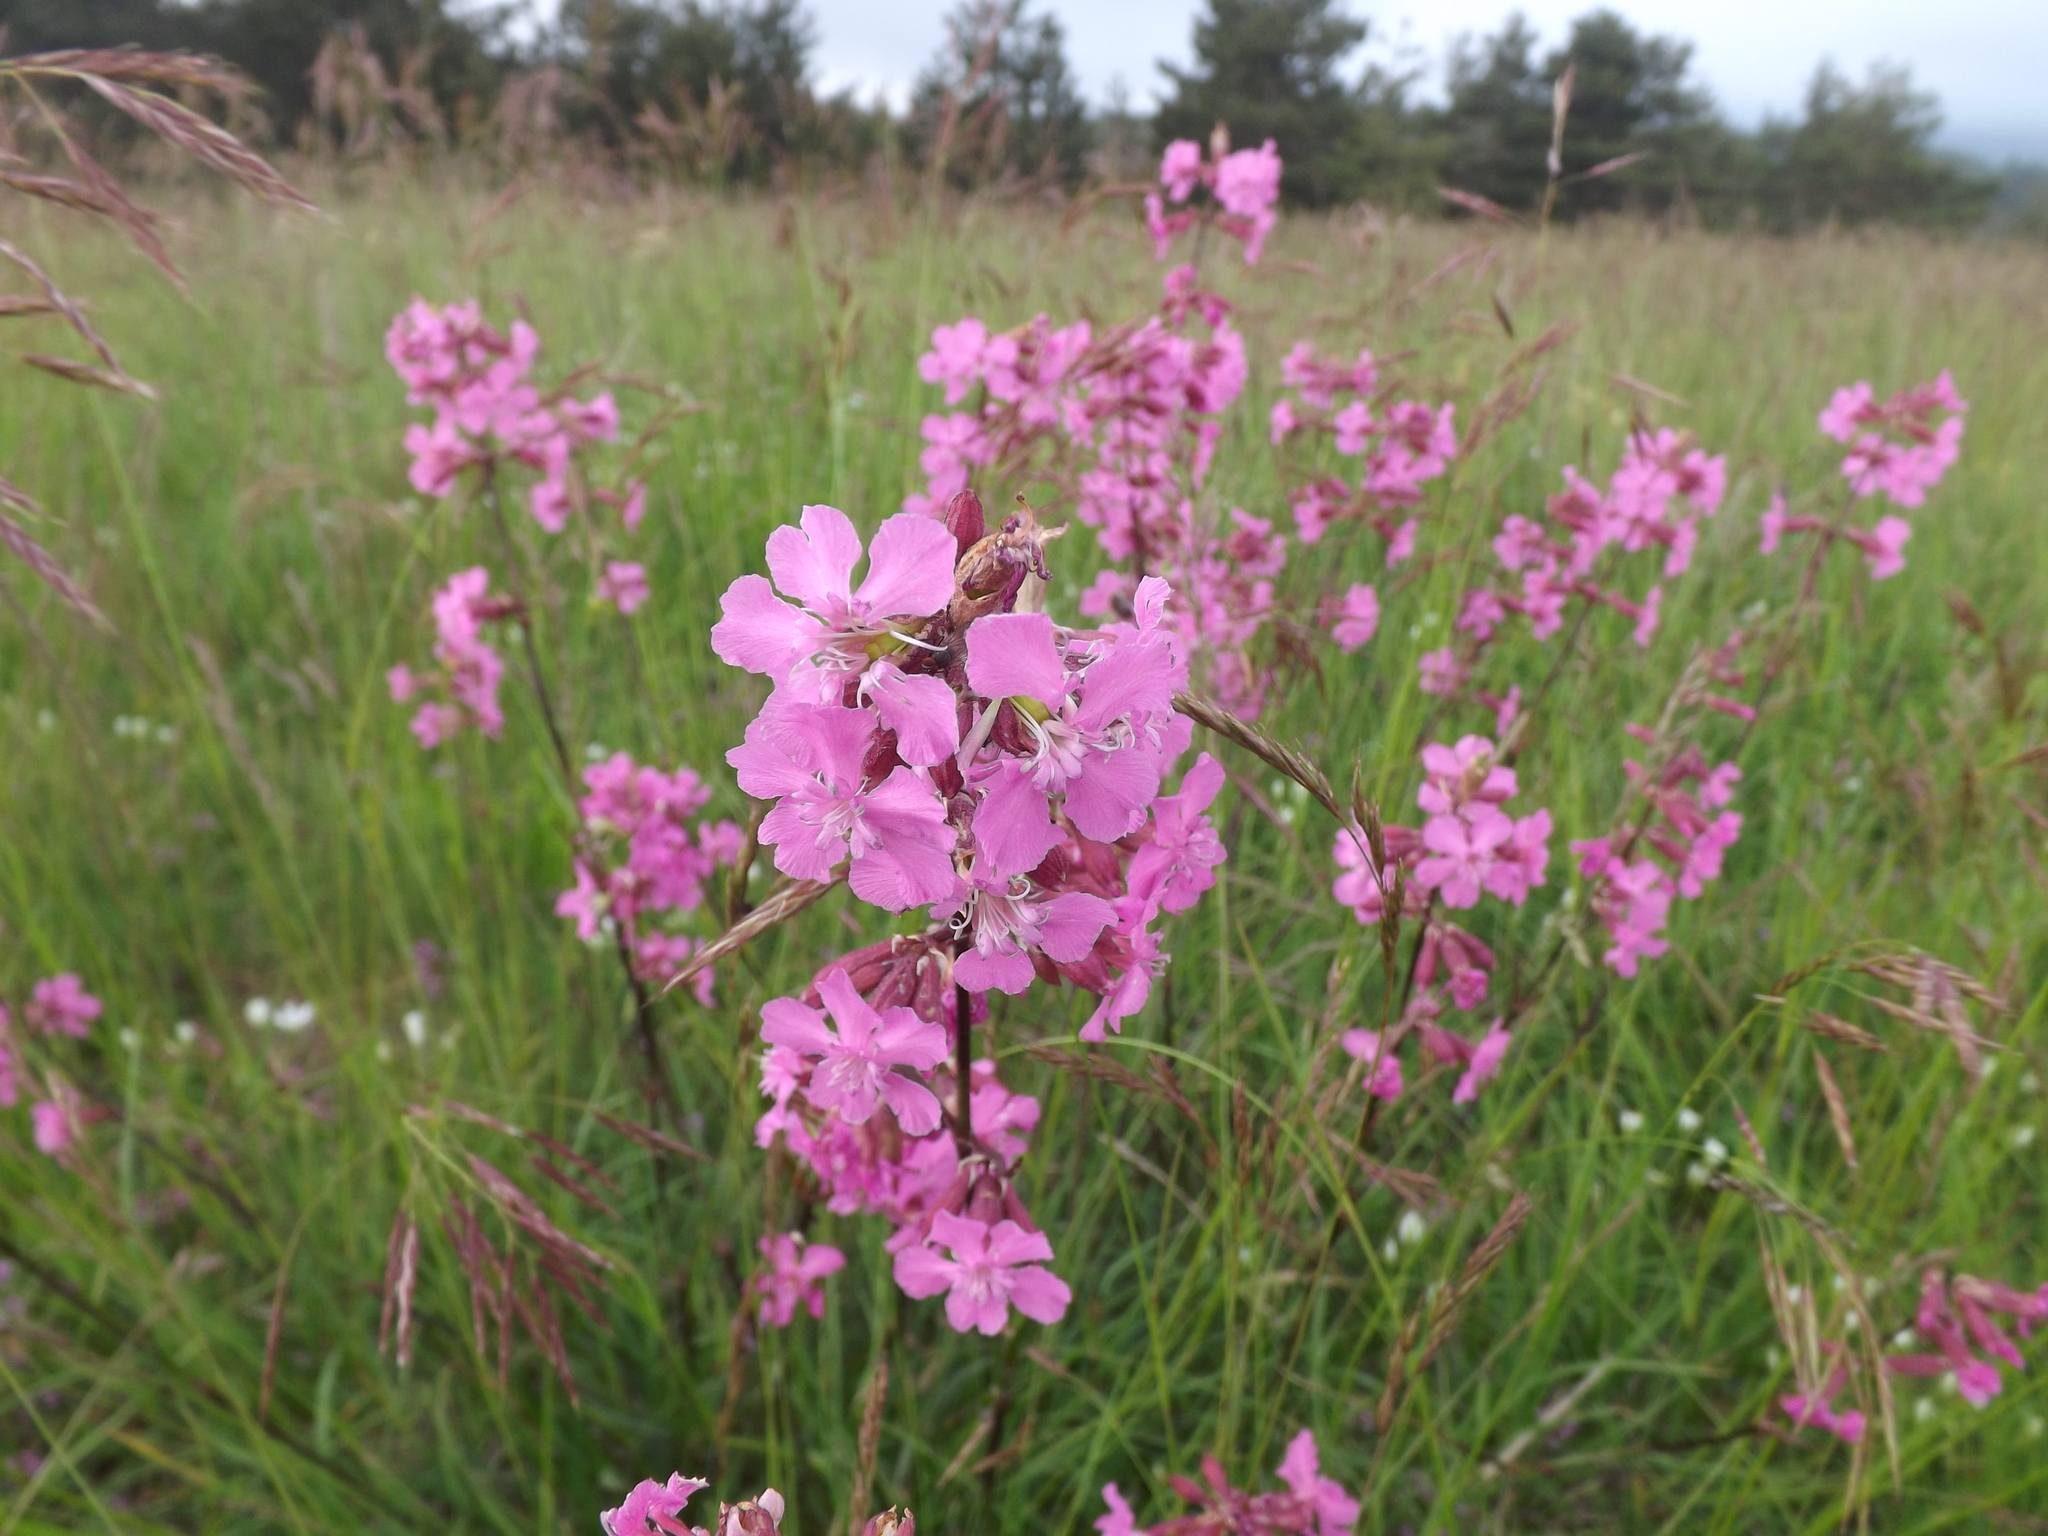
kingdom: Plantae
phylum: Tracheophyta
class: Magnoliopsida
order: Caryophyllales
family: Caryophyllaceae
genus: Viscaria
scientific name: Viscaria vulgaris
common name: Clammy campion
